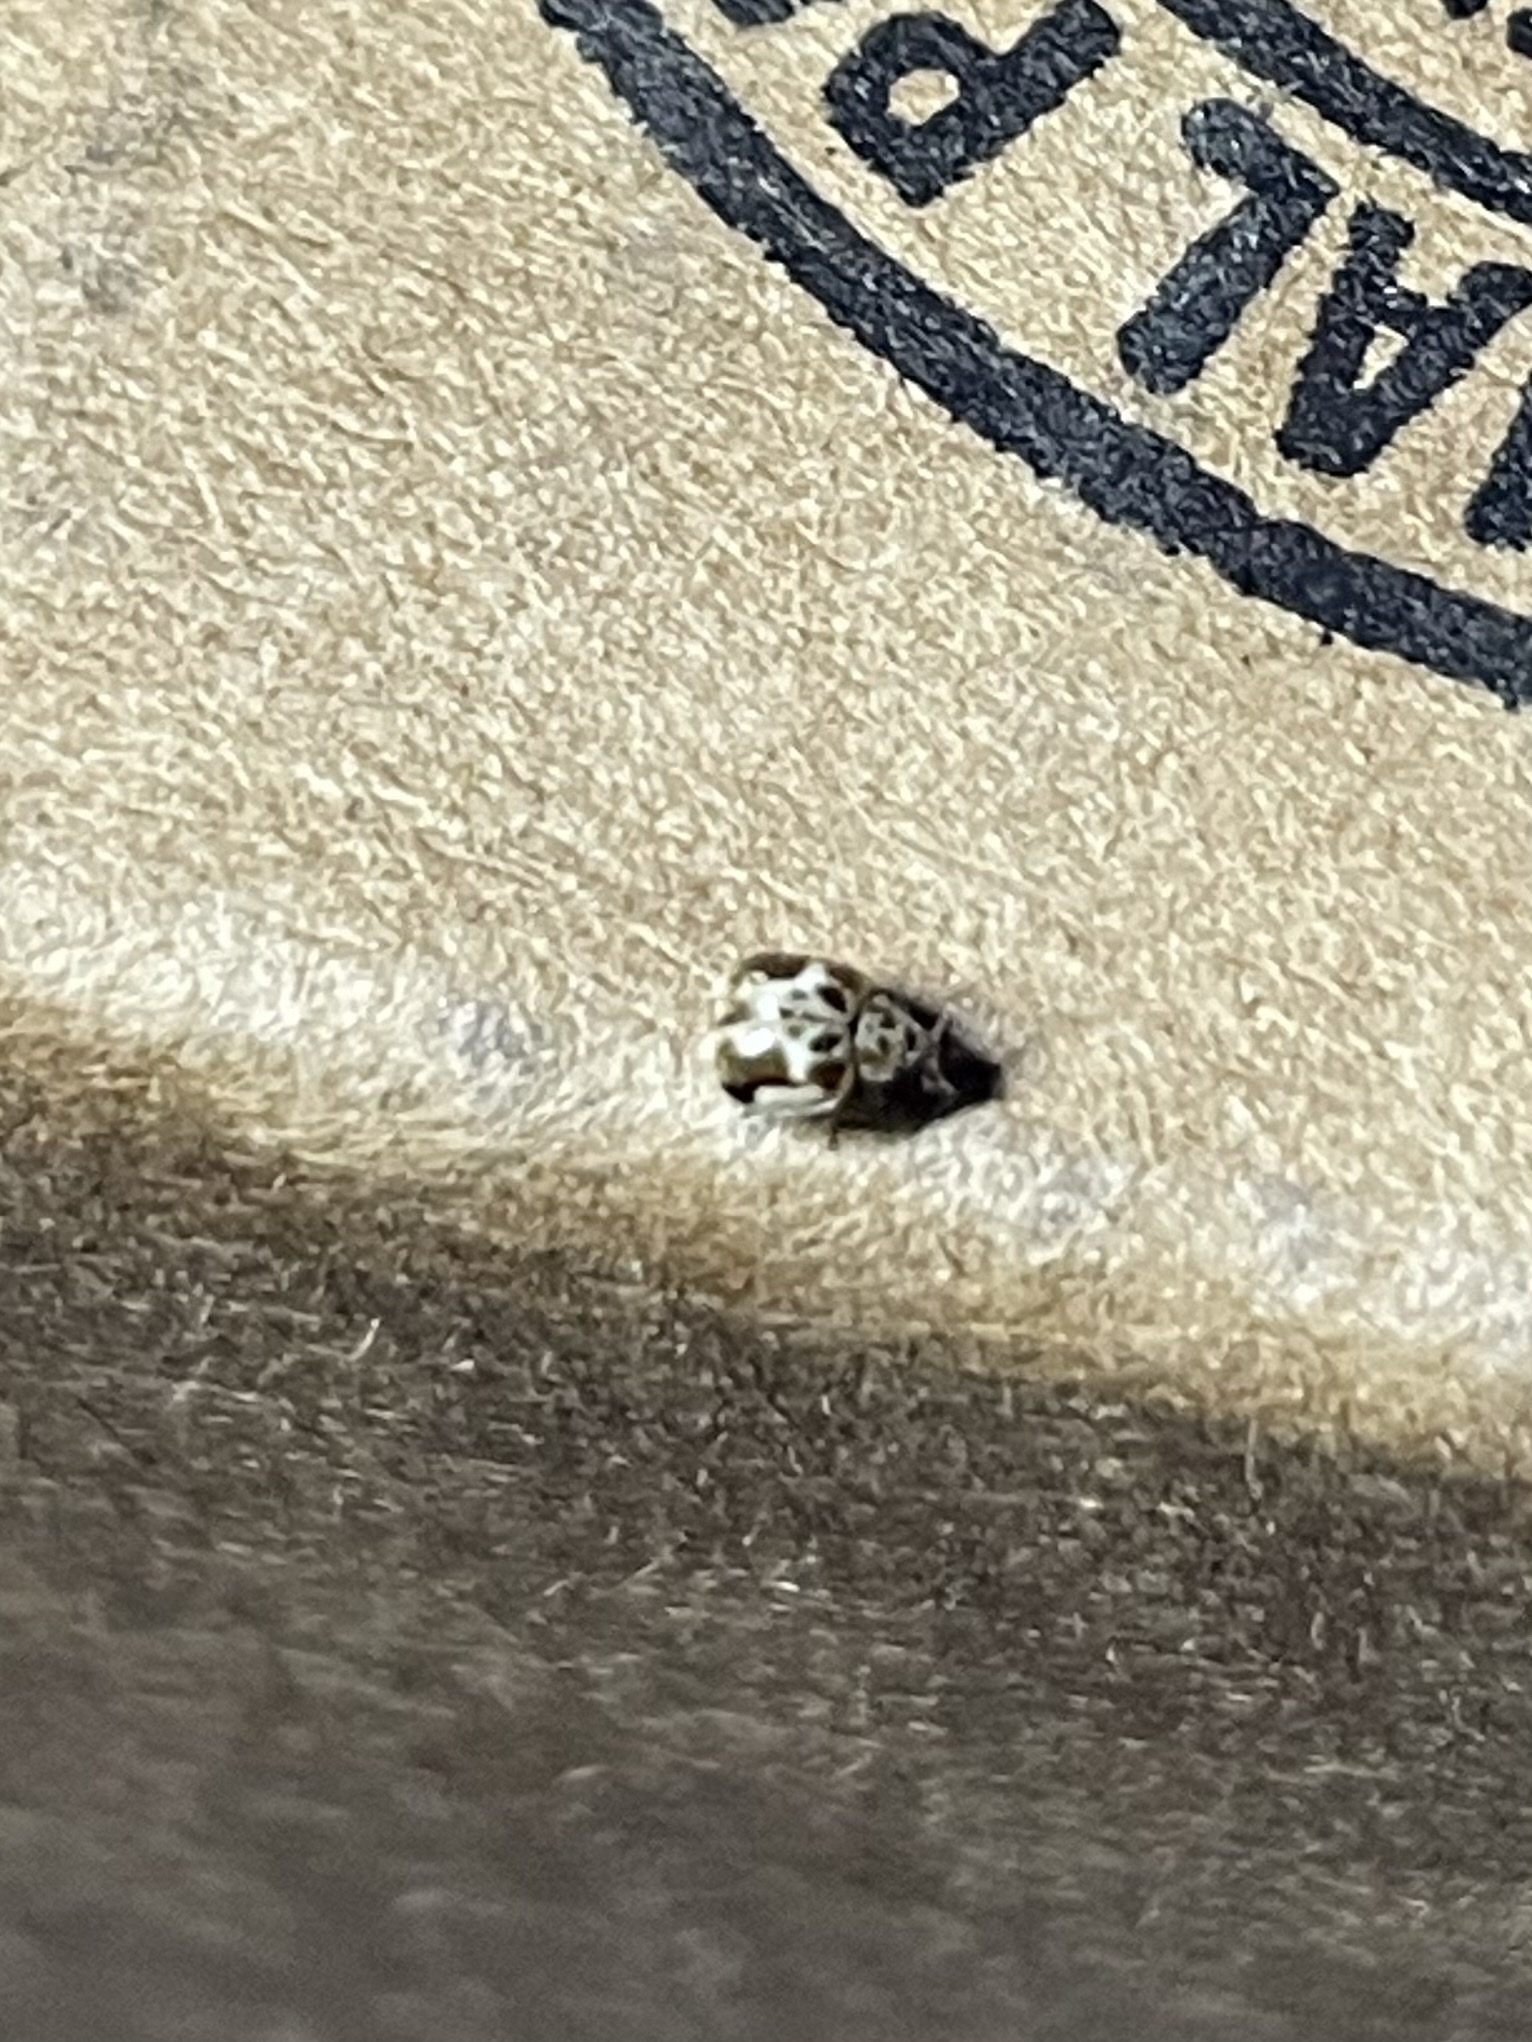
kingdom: Animalia
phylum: Arthropoda
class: Insecta
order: Coleoptera
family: Coccinellidae
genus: Psyllobora
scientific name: Psyllobora renifer
